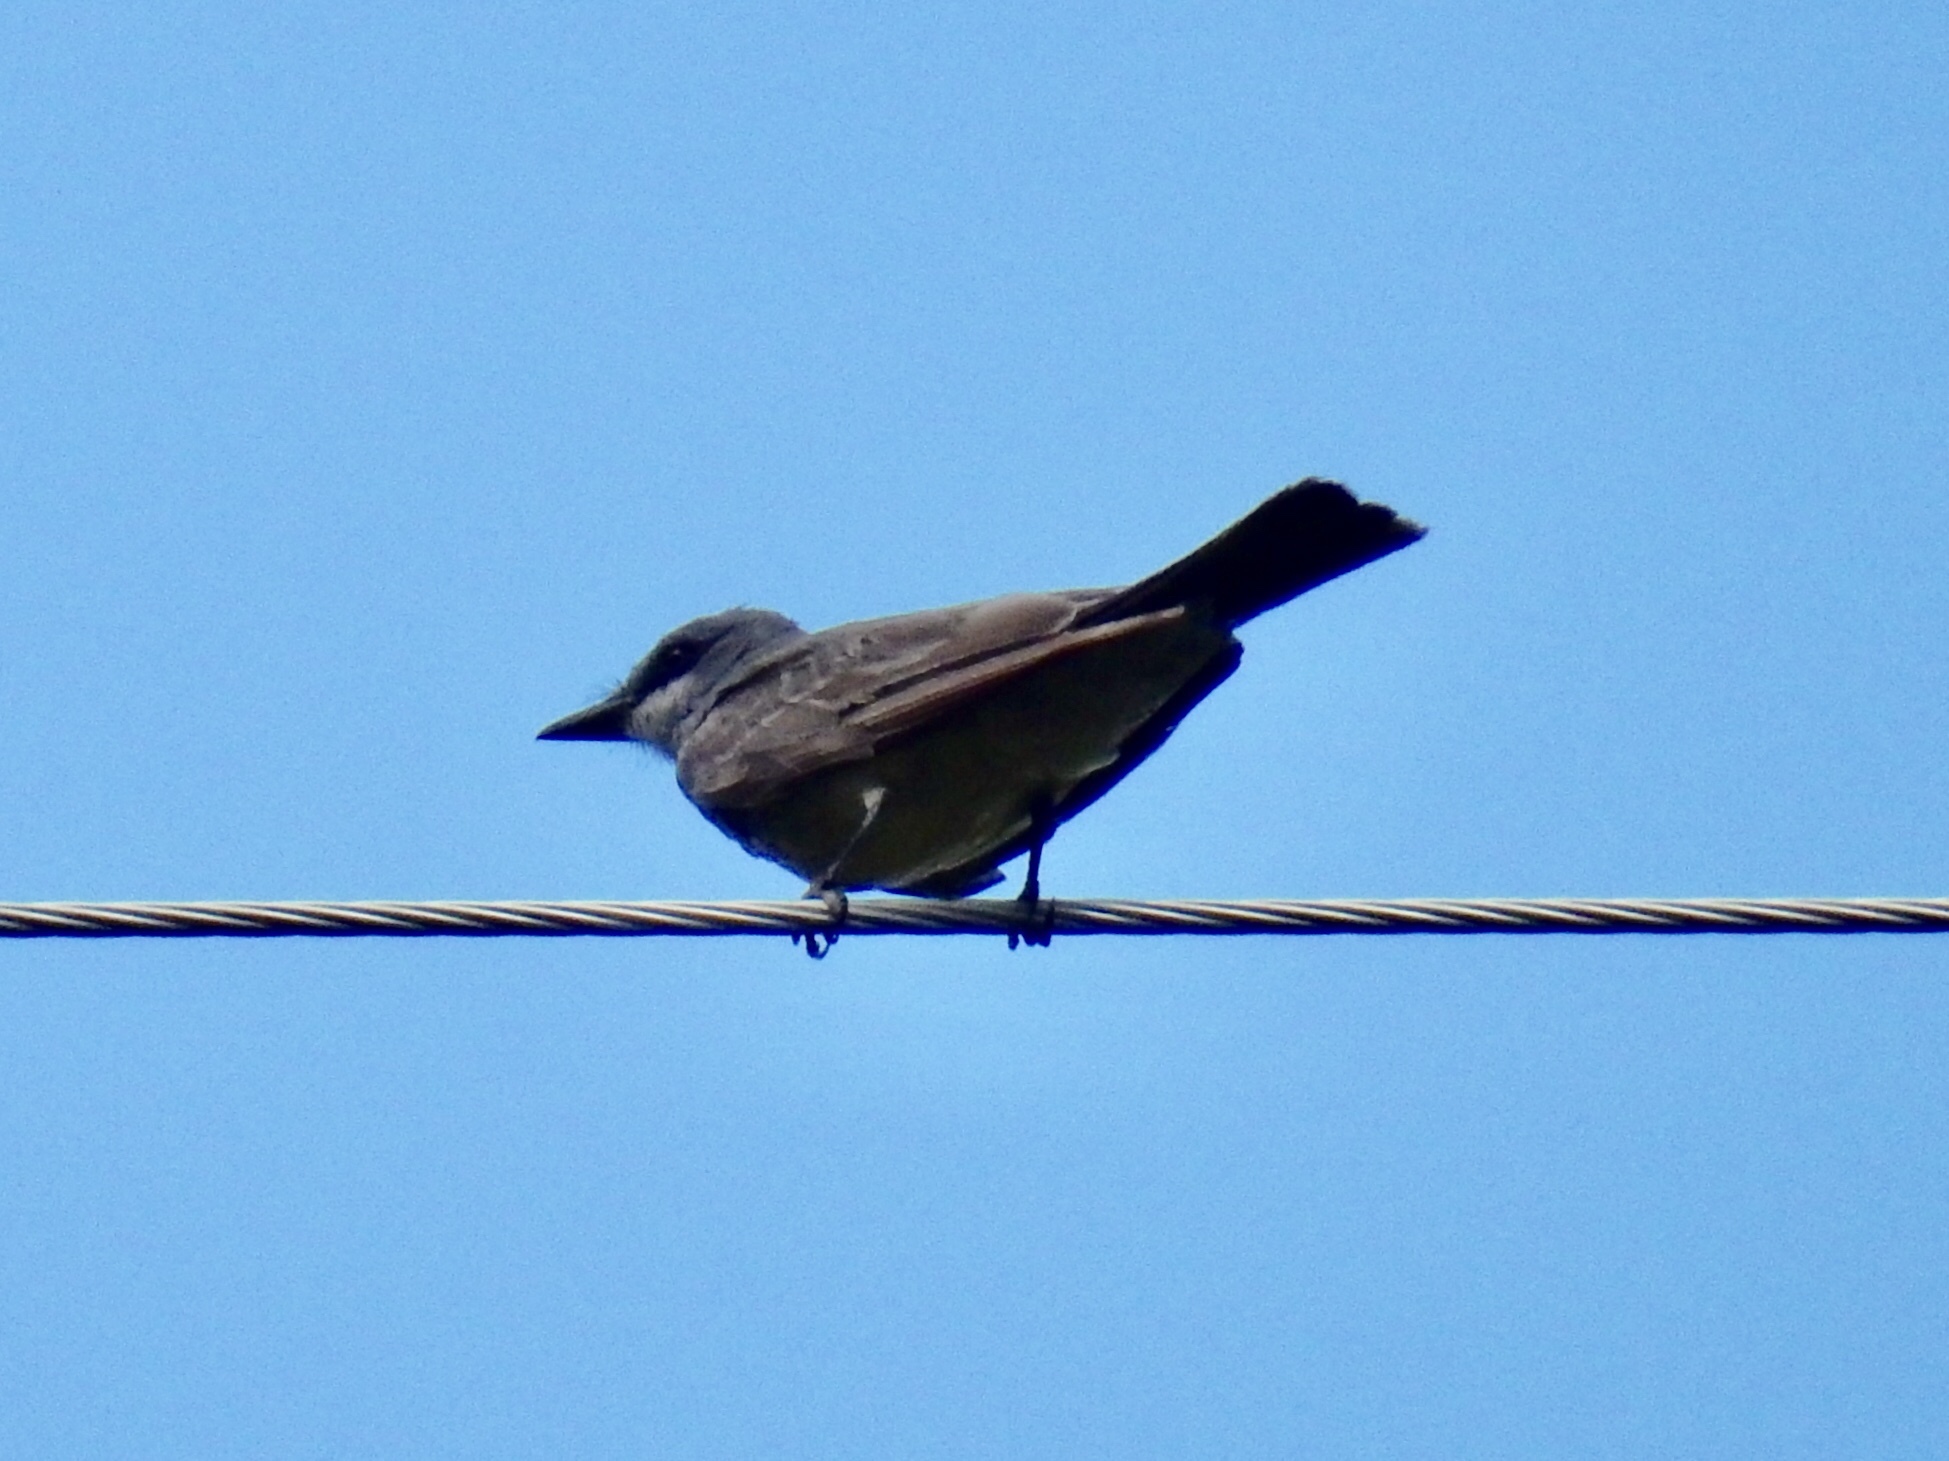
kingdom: Animalia
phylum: Chordata
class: Aves
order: Passeriformes
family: Tyrannidae
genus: Tyrannus
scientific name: Tyrannus vociferans
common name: Cassin's kingbird
